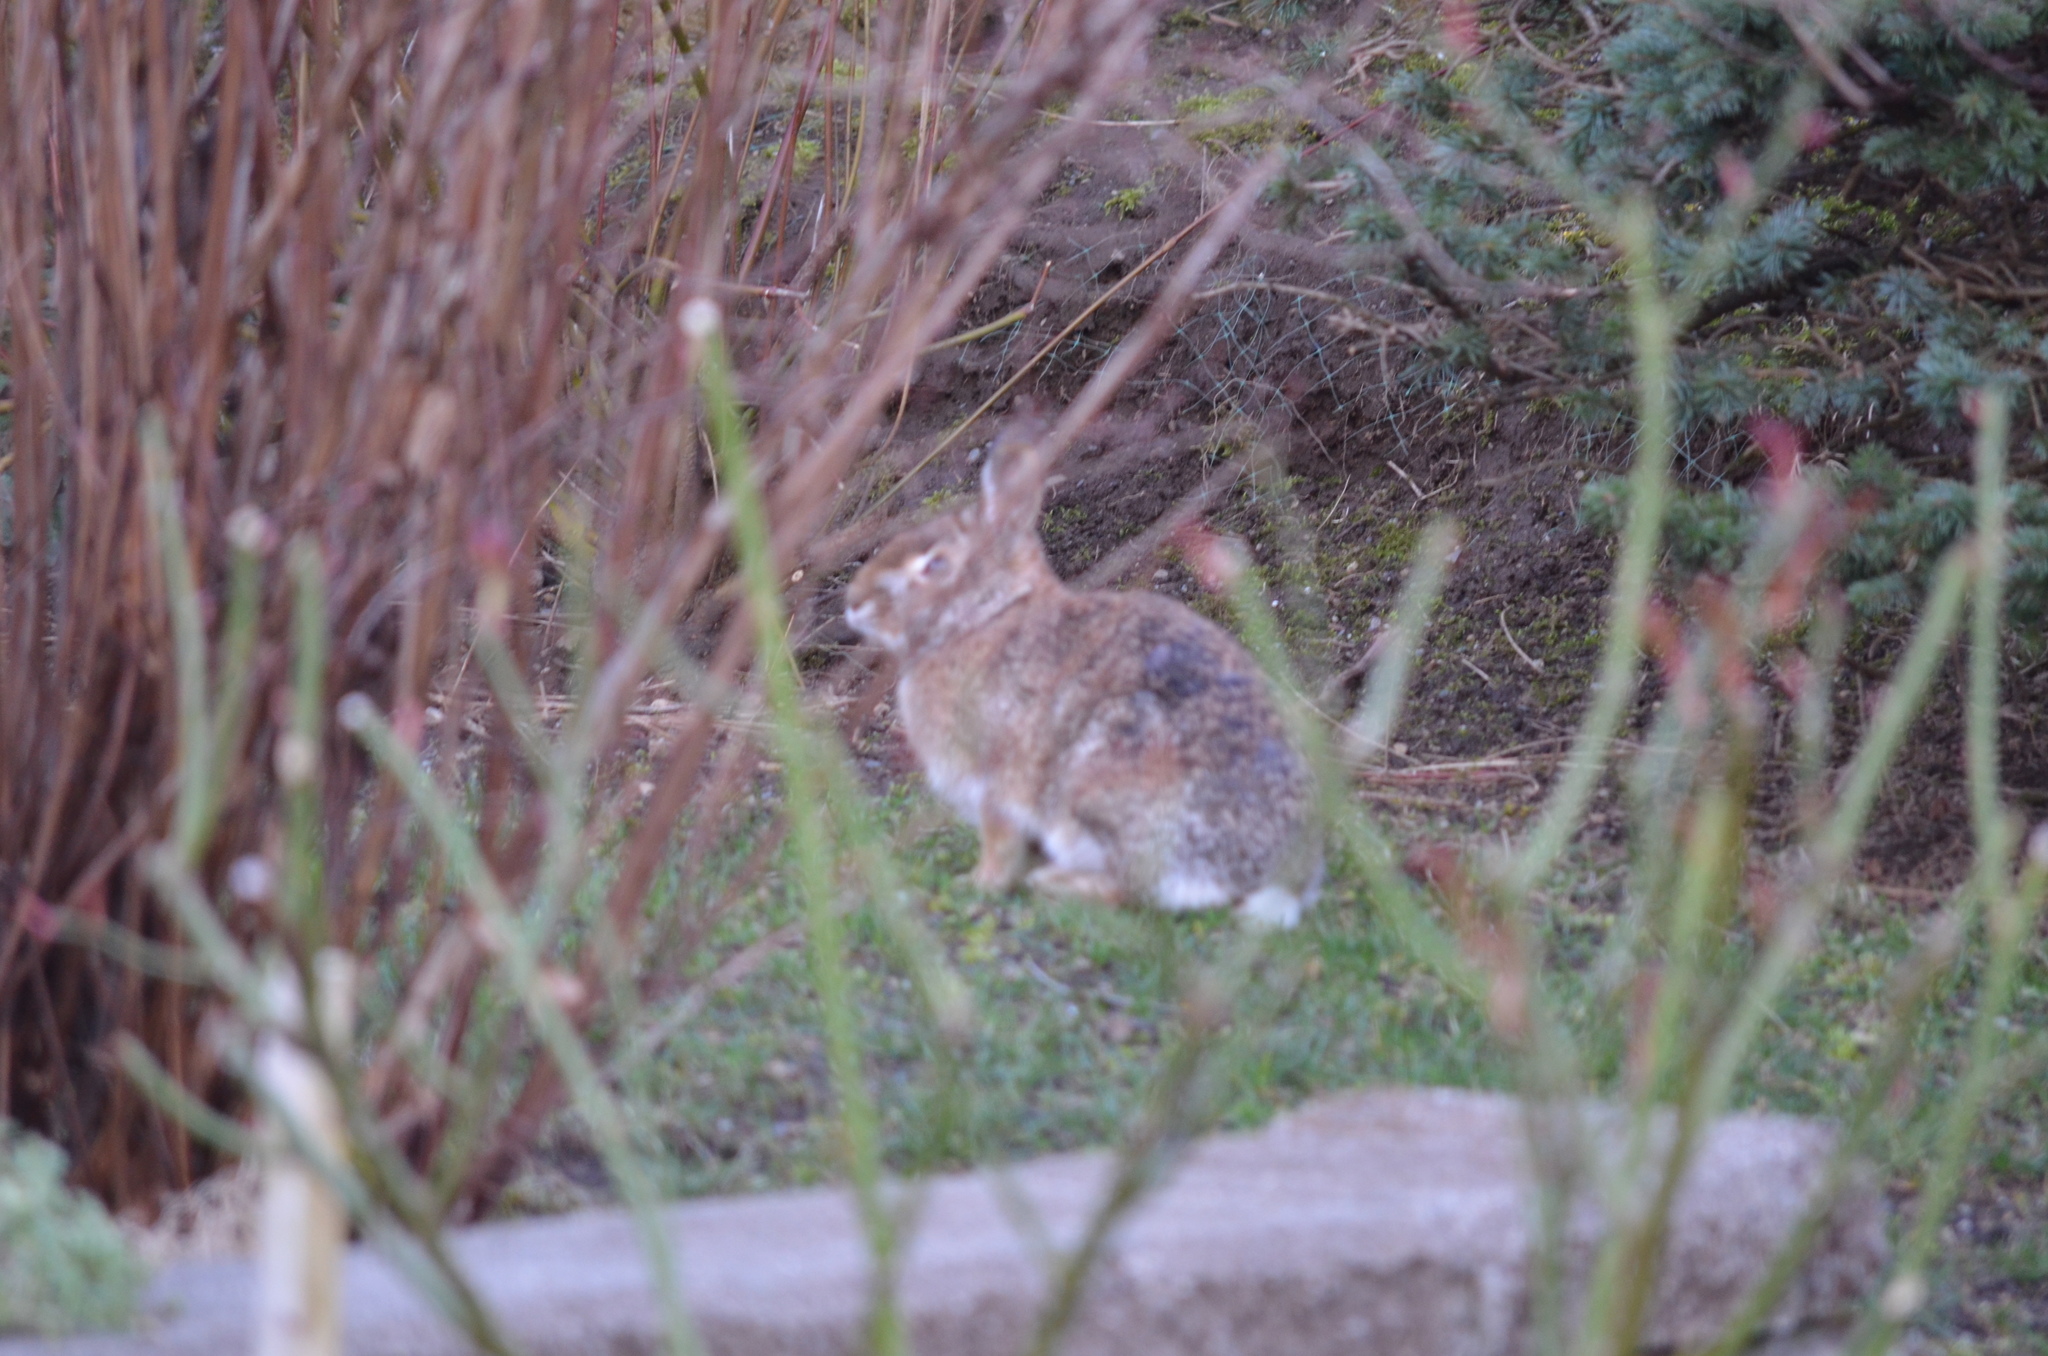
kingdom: Animalia
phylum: Chordata
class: Mammalia
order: Lagomorpha
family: Leporidae
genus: Sylvilagus
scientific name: Sylvilagus floridanus
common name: Eastern cottontail
